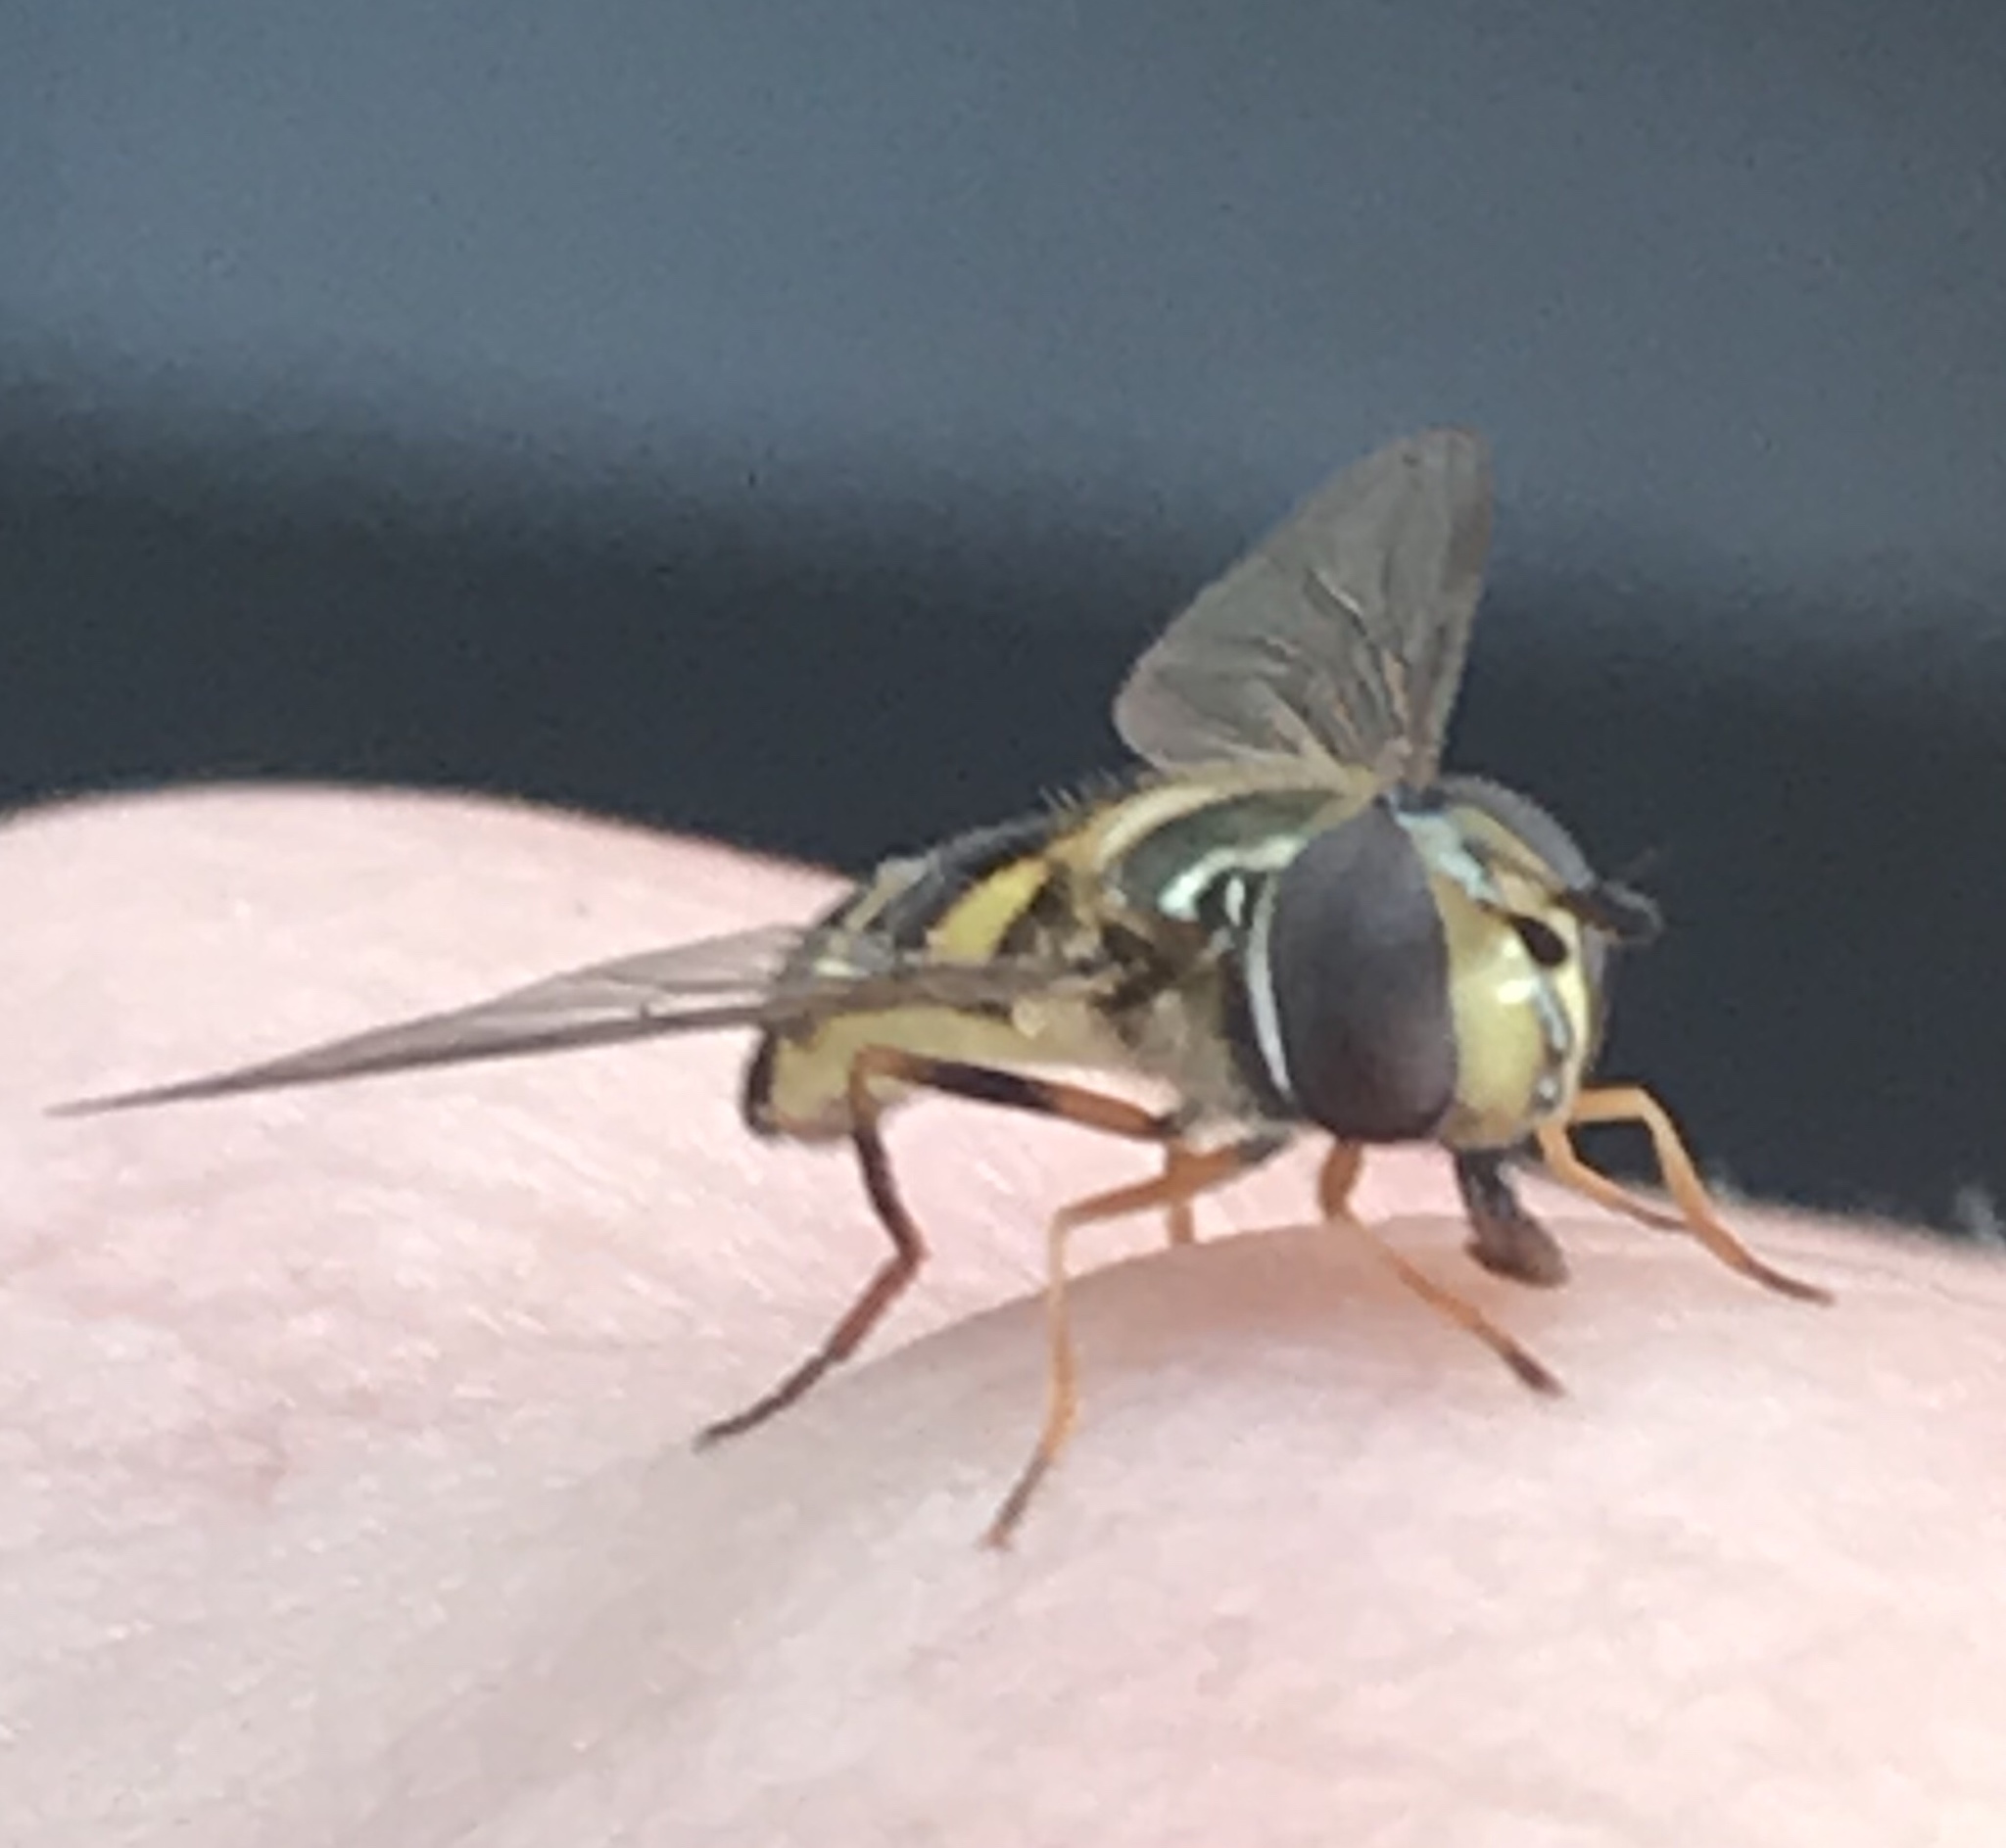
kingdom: Animalia
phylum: Arthropoda
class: Insecta
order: Diptera
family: Syrphidae
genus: Eupeodes
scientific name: Eupeodes
